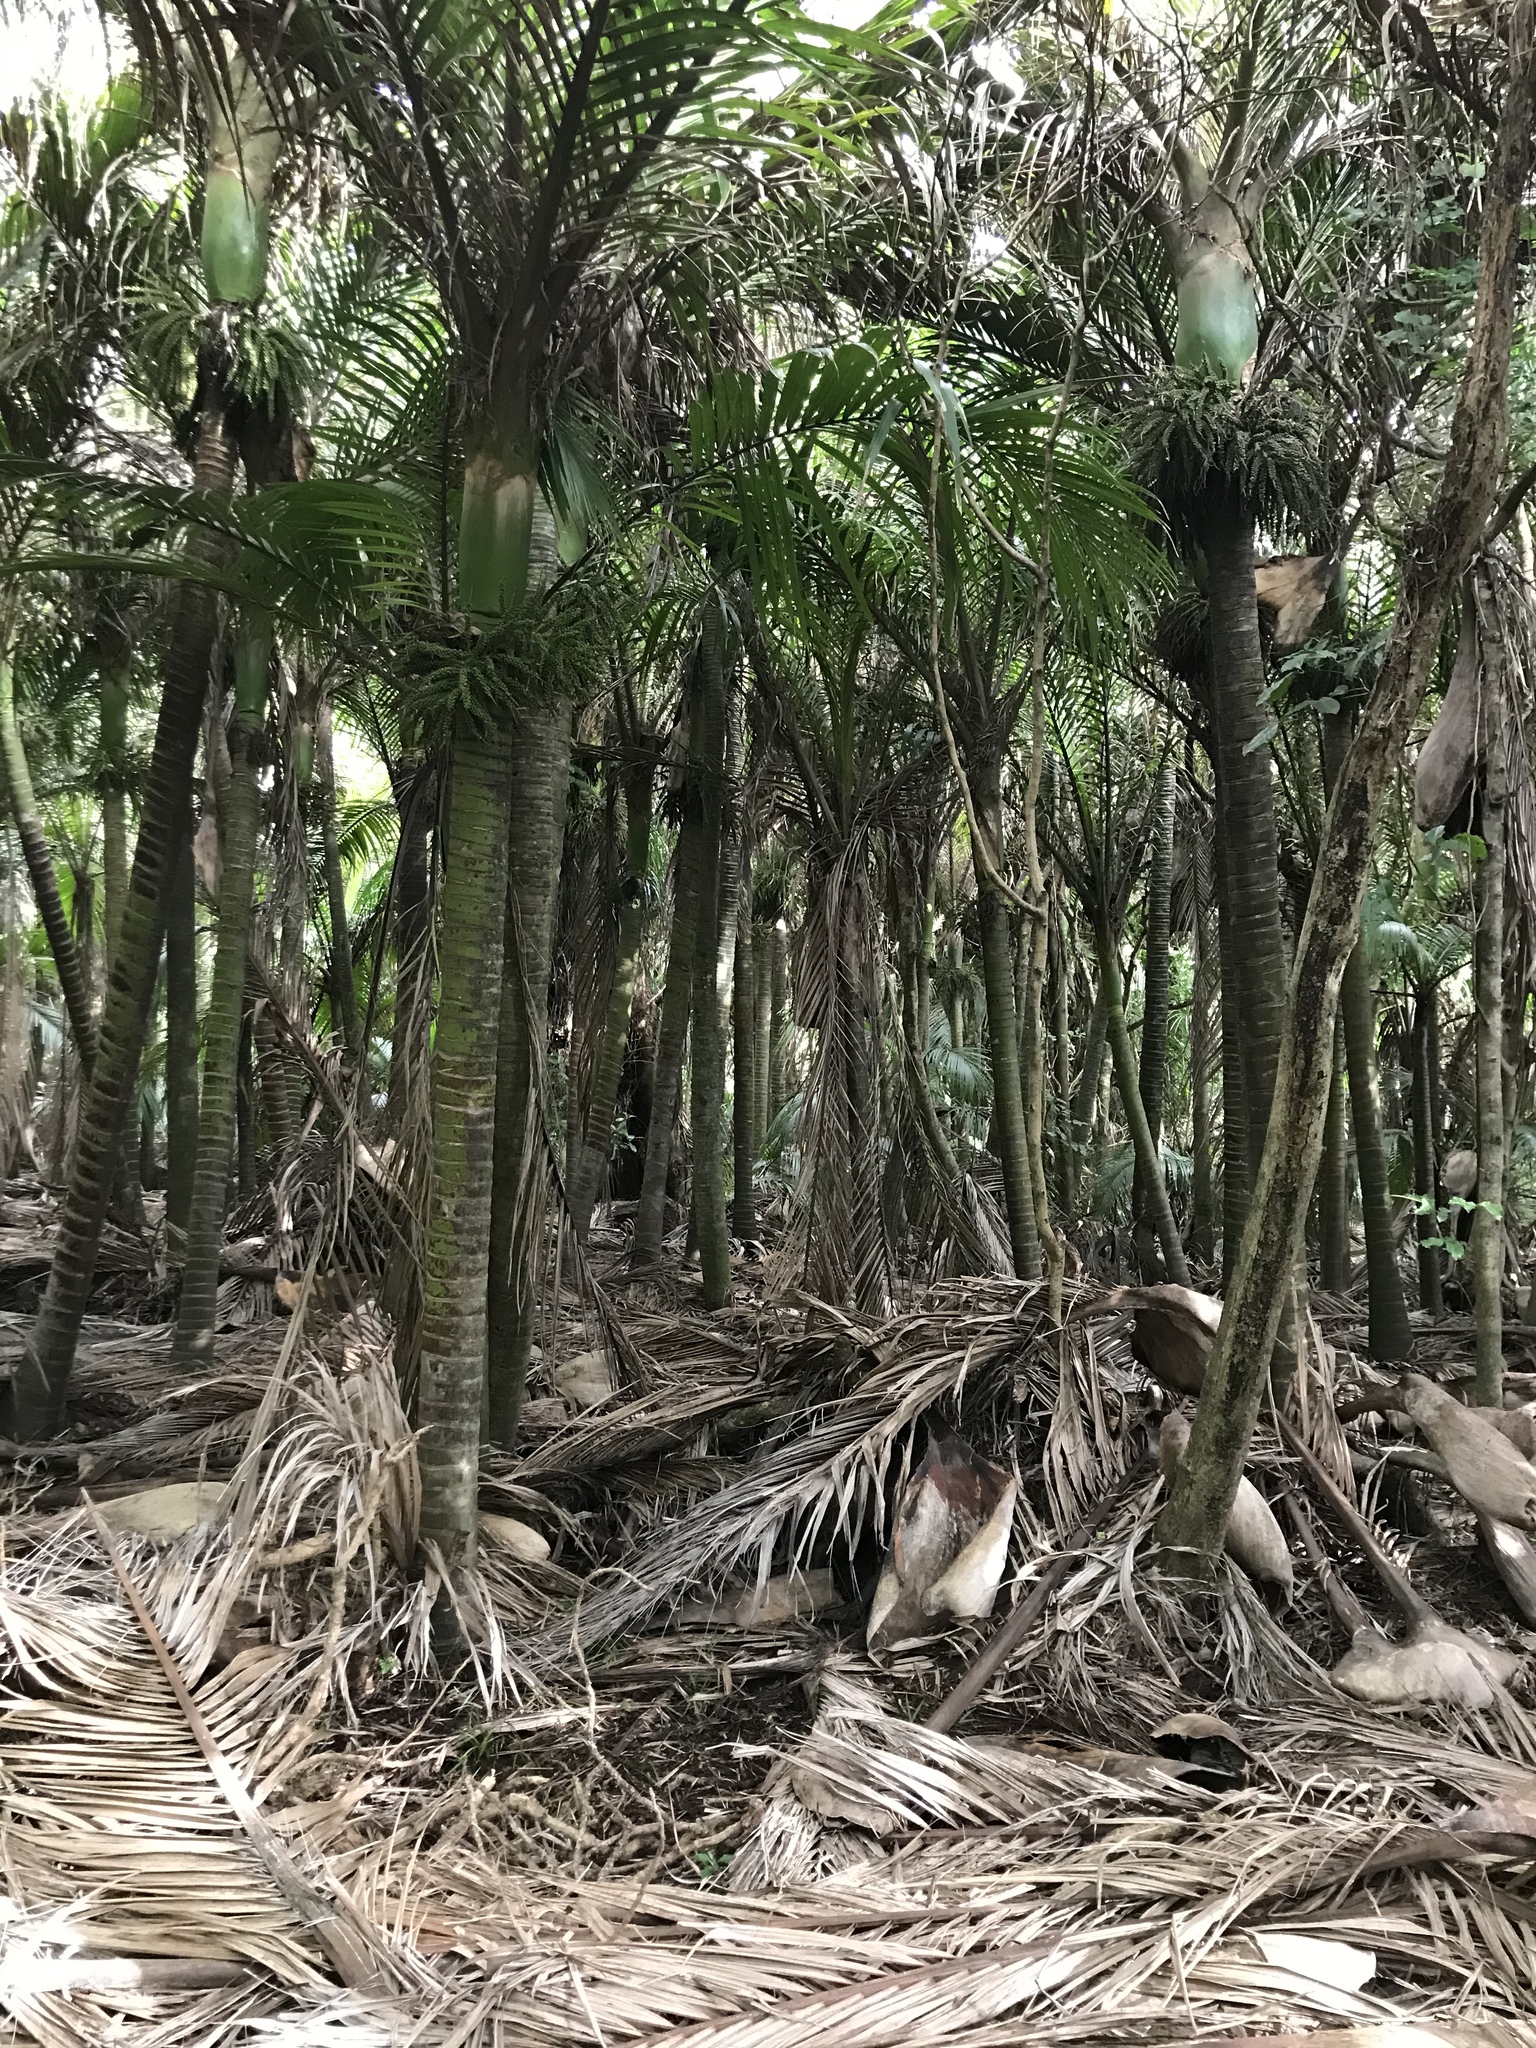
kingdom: Plantae
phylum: Tracheophyta
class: Liliopsida
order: Arecales
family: Arecaceae
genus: Rhopalostylis
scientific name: Rhopalostylis sapida
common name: Feather-duster palm
